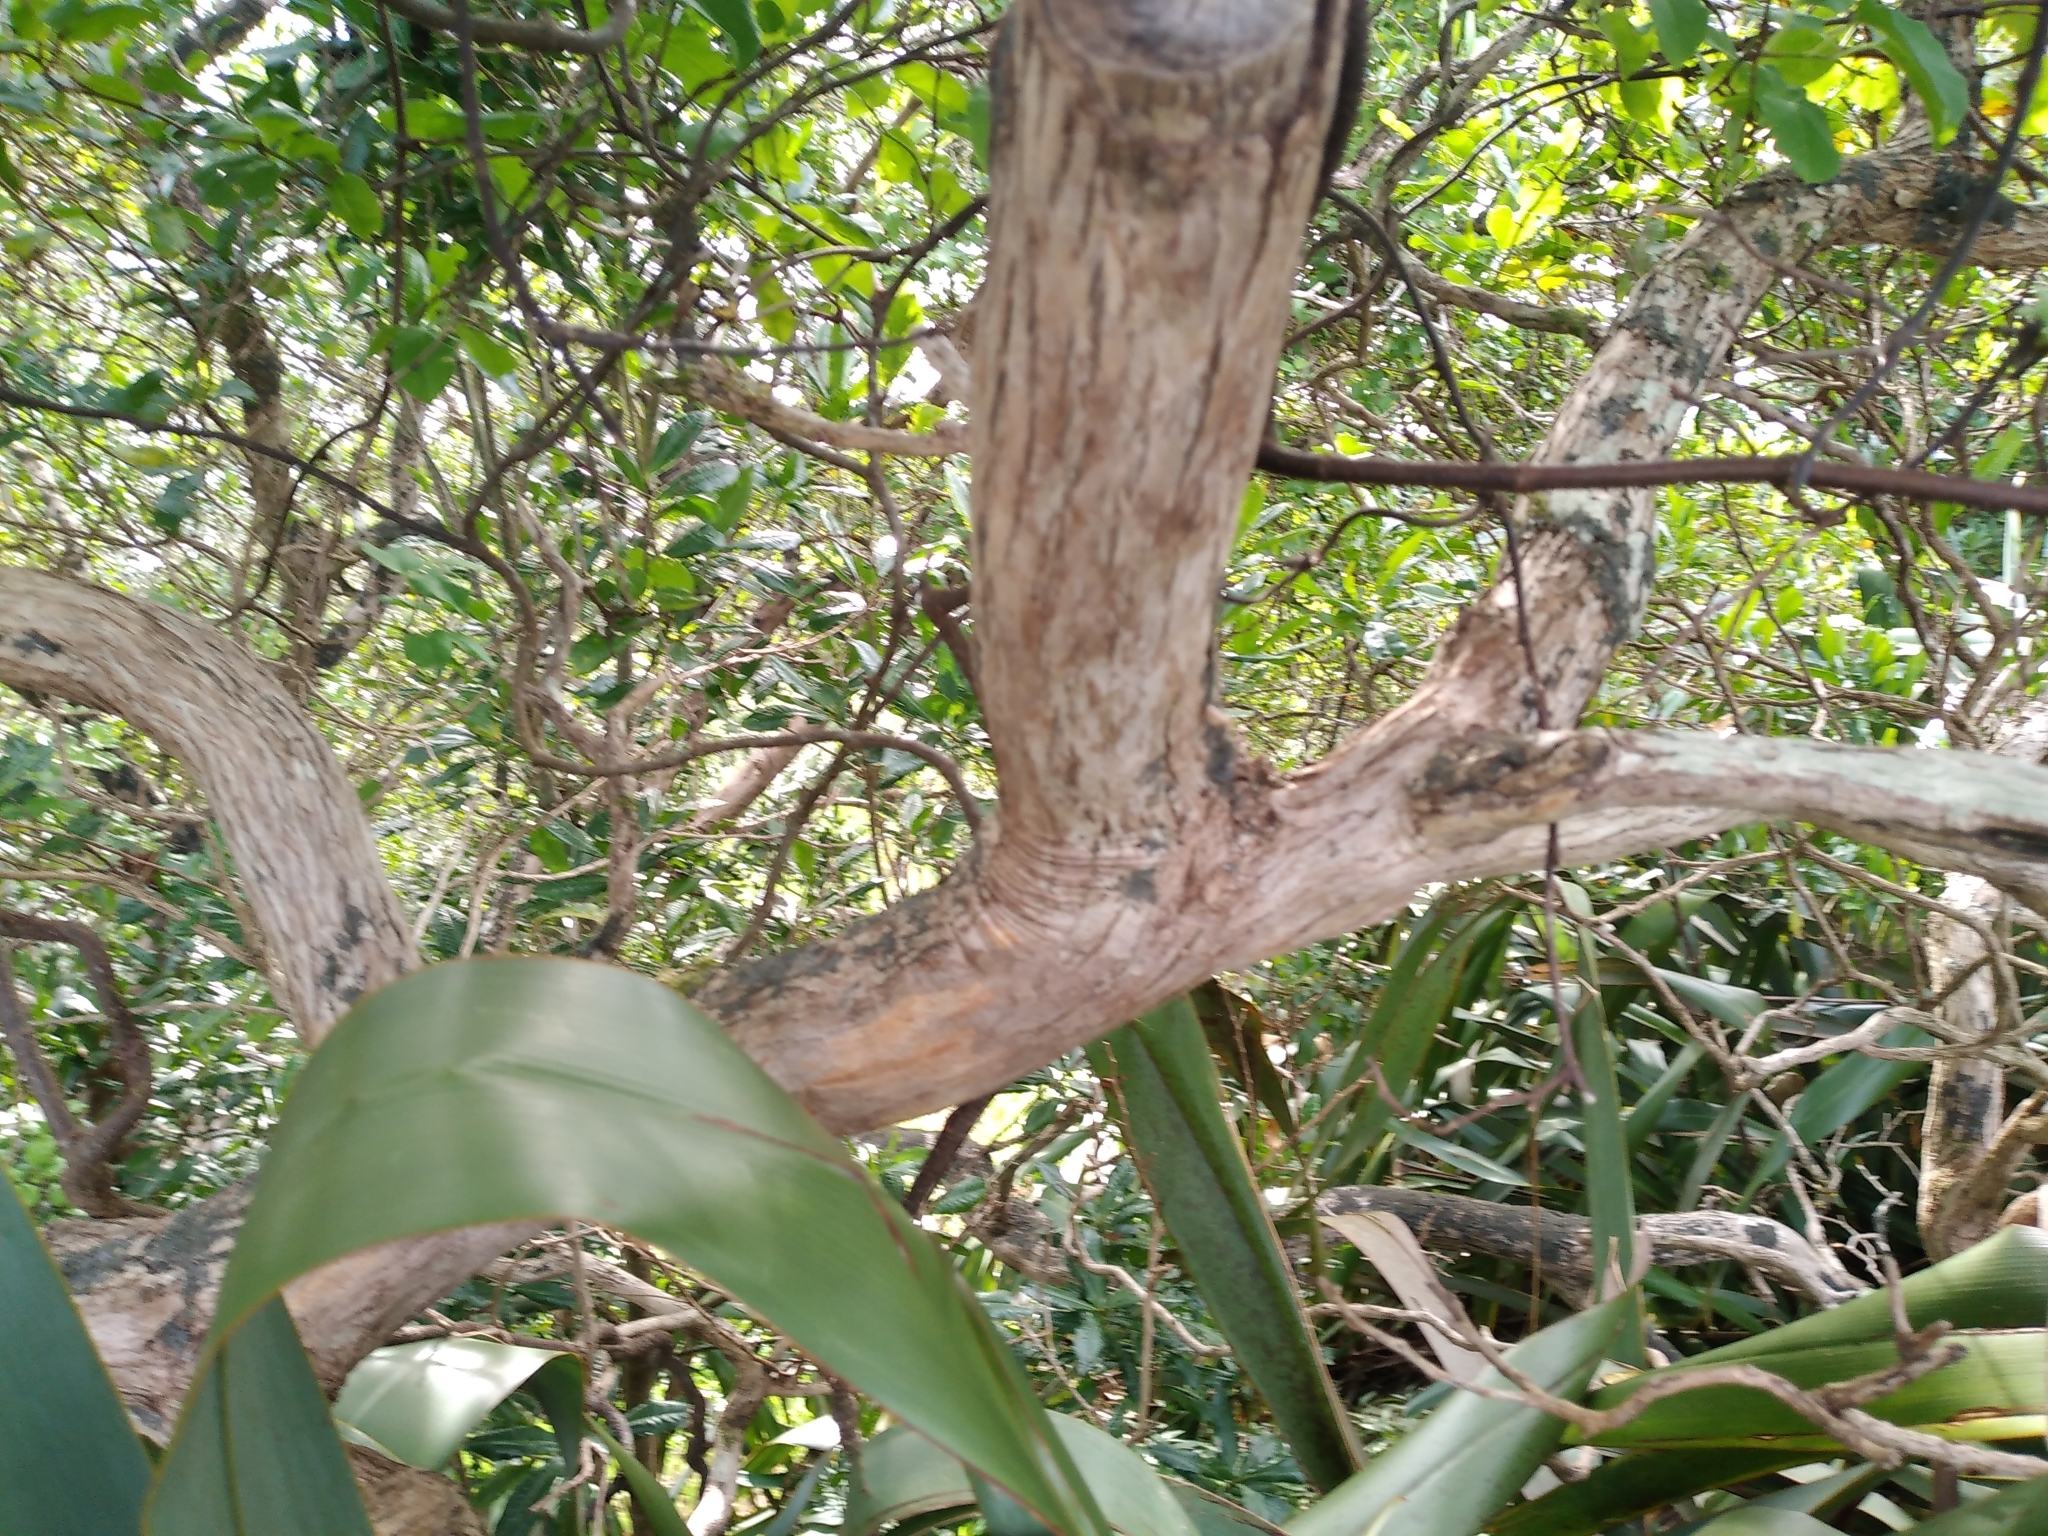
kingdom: Plantae
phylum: Tracheophyta
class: Magnoliopsida
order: Sapindales
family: Sapindaceae
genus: Dodonaea
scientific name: Dodonaea viscosa
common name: Hopbush
